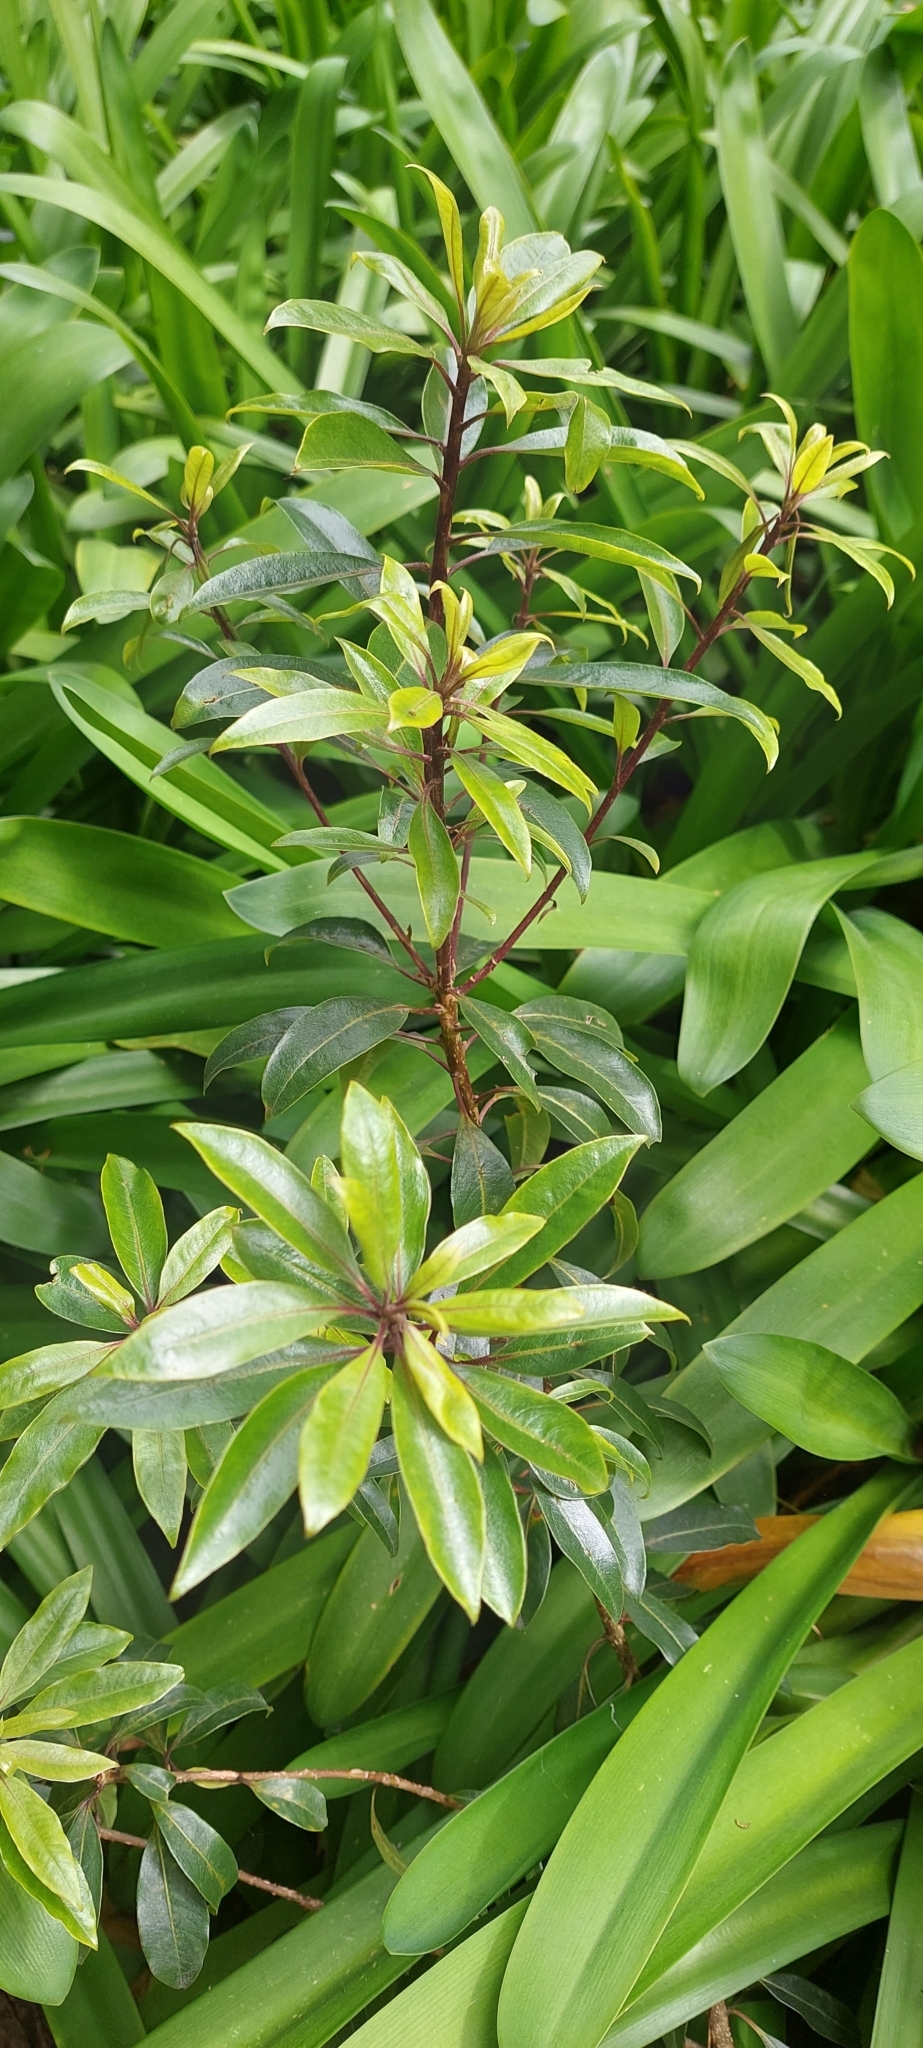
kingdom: Plantae
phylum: Tracheophyta
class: Magnoliopsida
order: Apiales
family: Pittosporaceae
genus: Pittosporum
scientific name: Pittosporum undulatum
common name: Australian cheesewood
